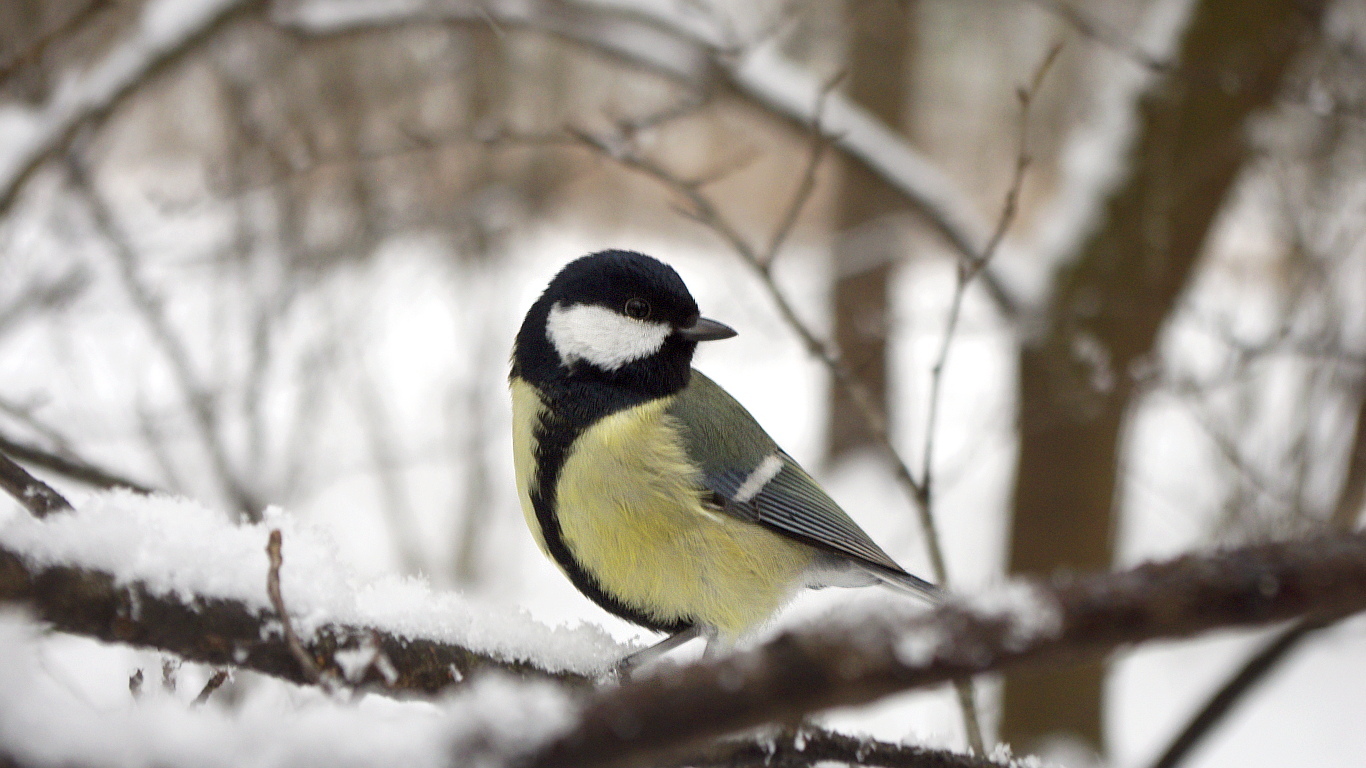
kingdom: Animalia
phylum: Chordata
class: Aves
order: Passeriformes
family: Paridae
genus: Parus
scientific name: Parus major
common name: Great tit
